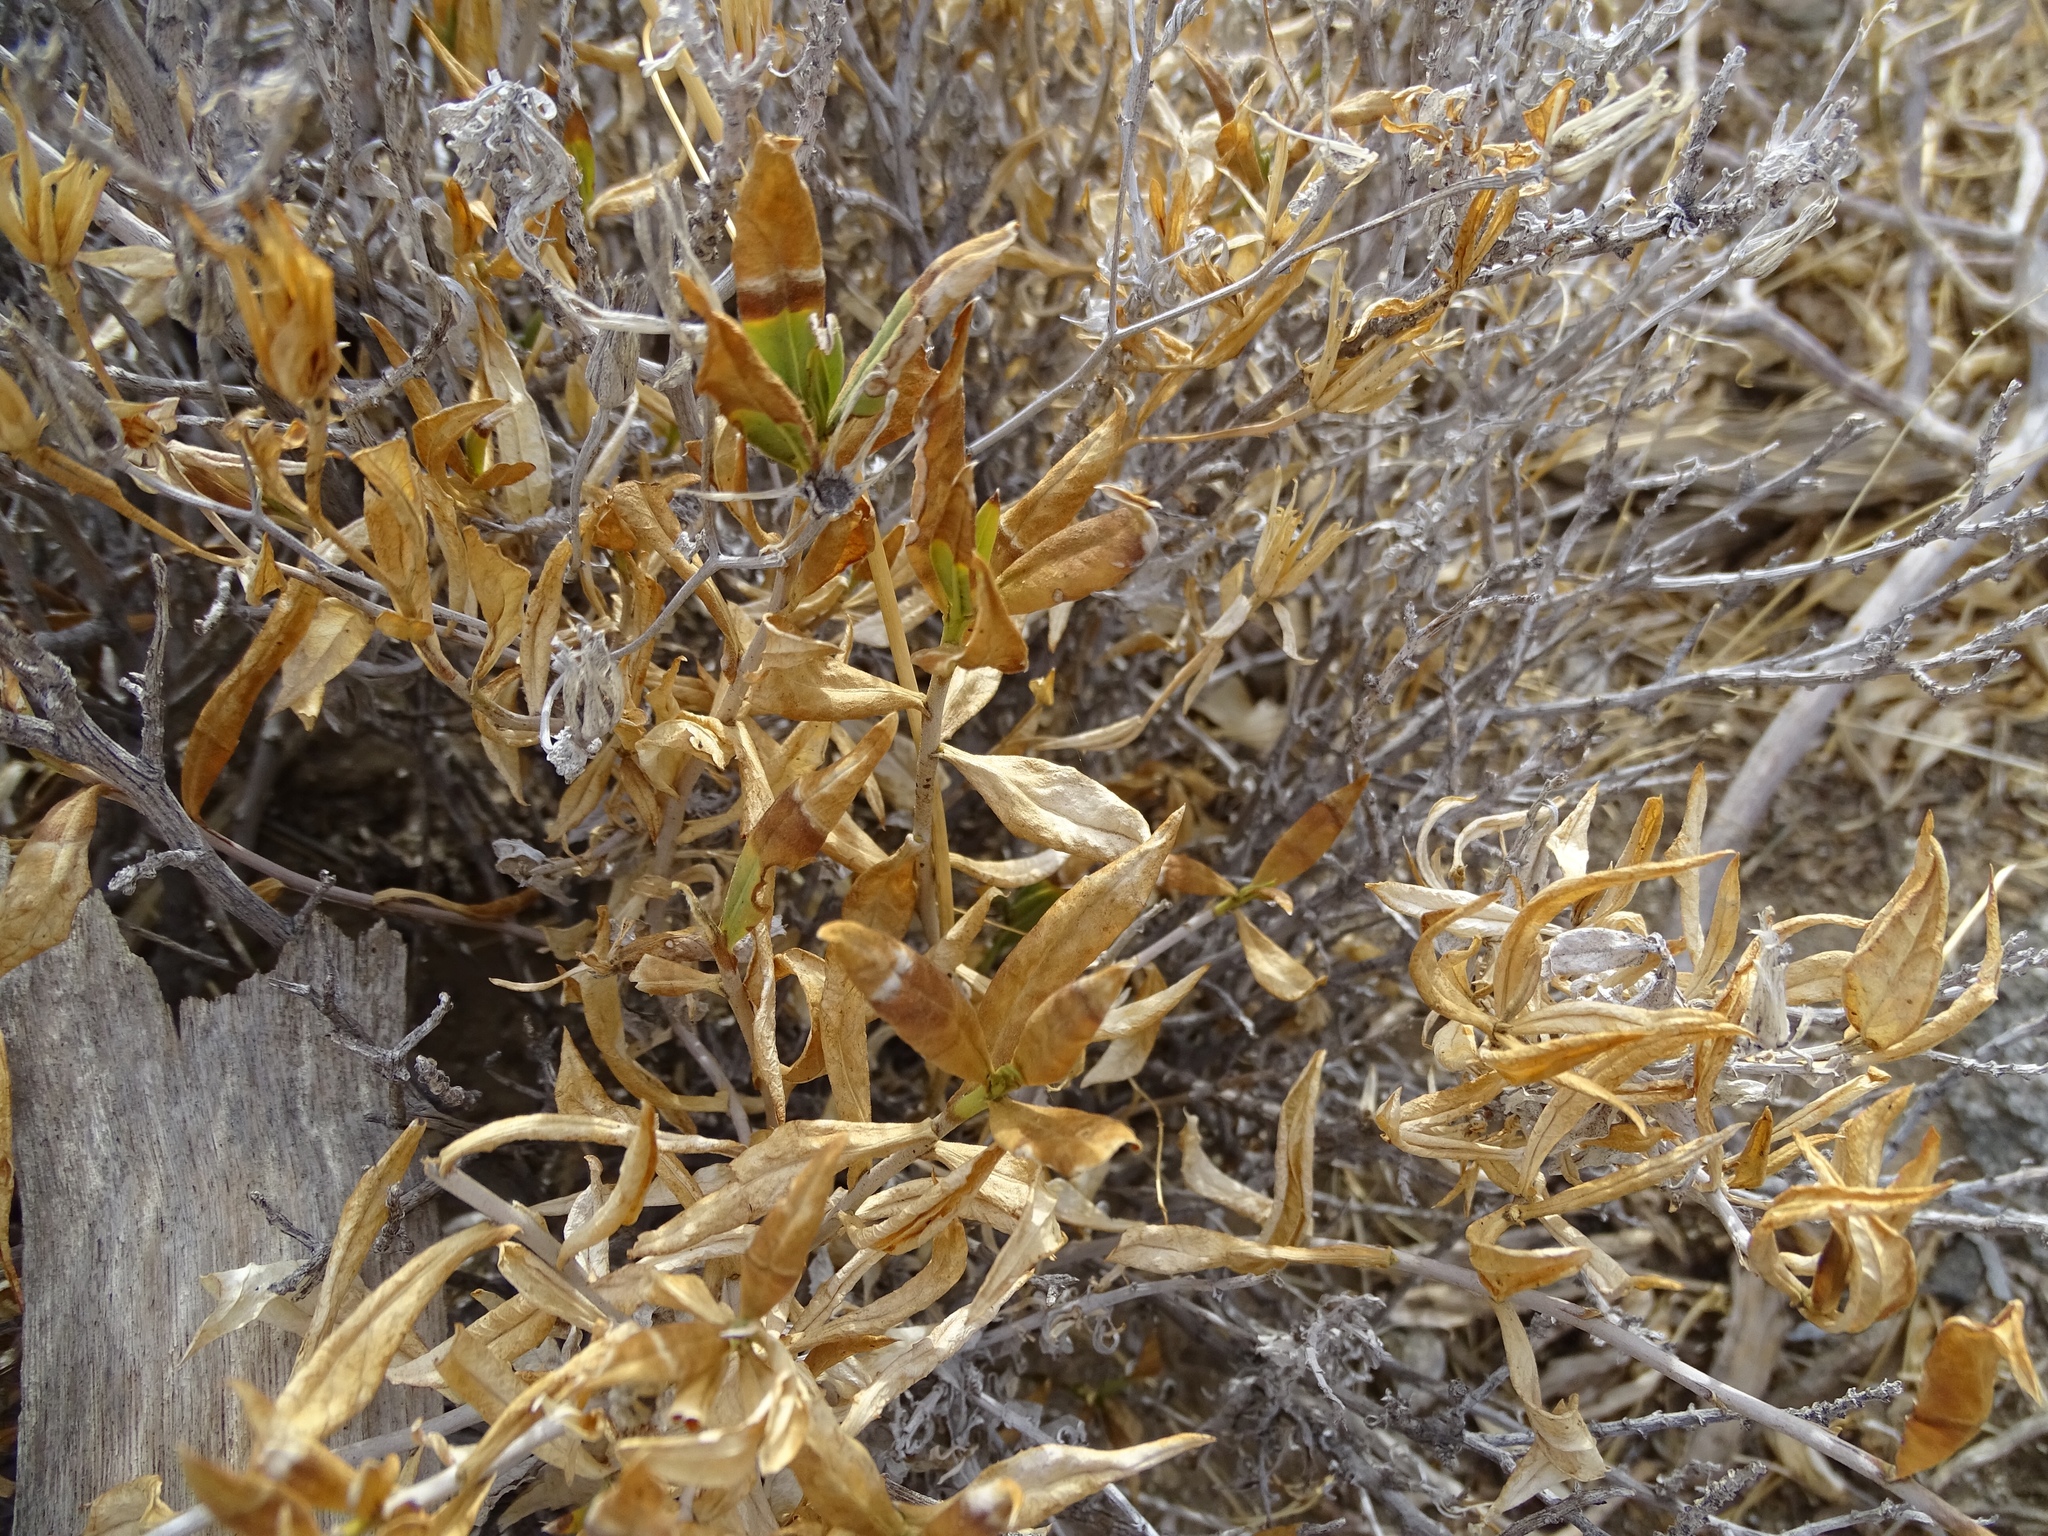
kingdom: Plantae
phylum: Tracheophyta
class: Magnoliopsida
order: Asterales
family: Asteraceae
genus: Trixis
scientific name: Trixis californica
